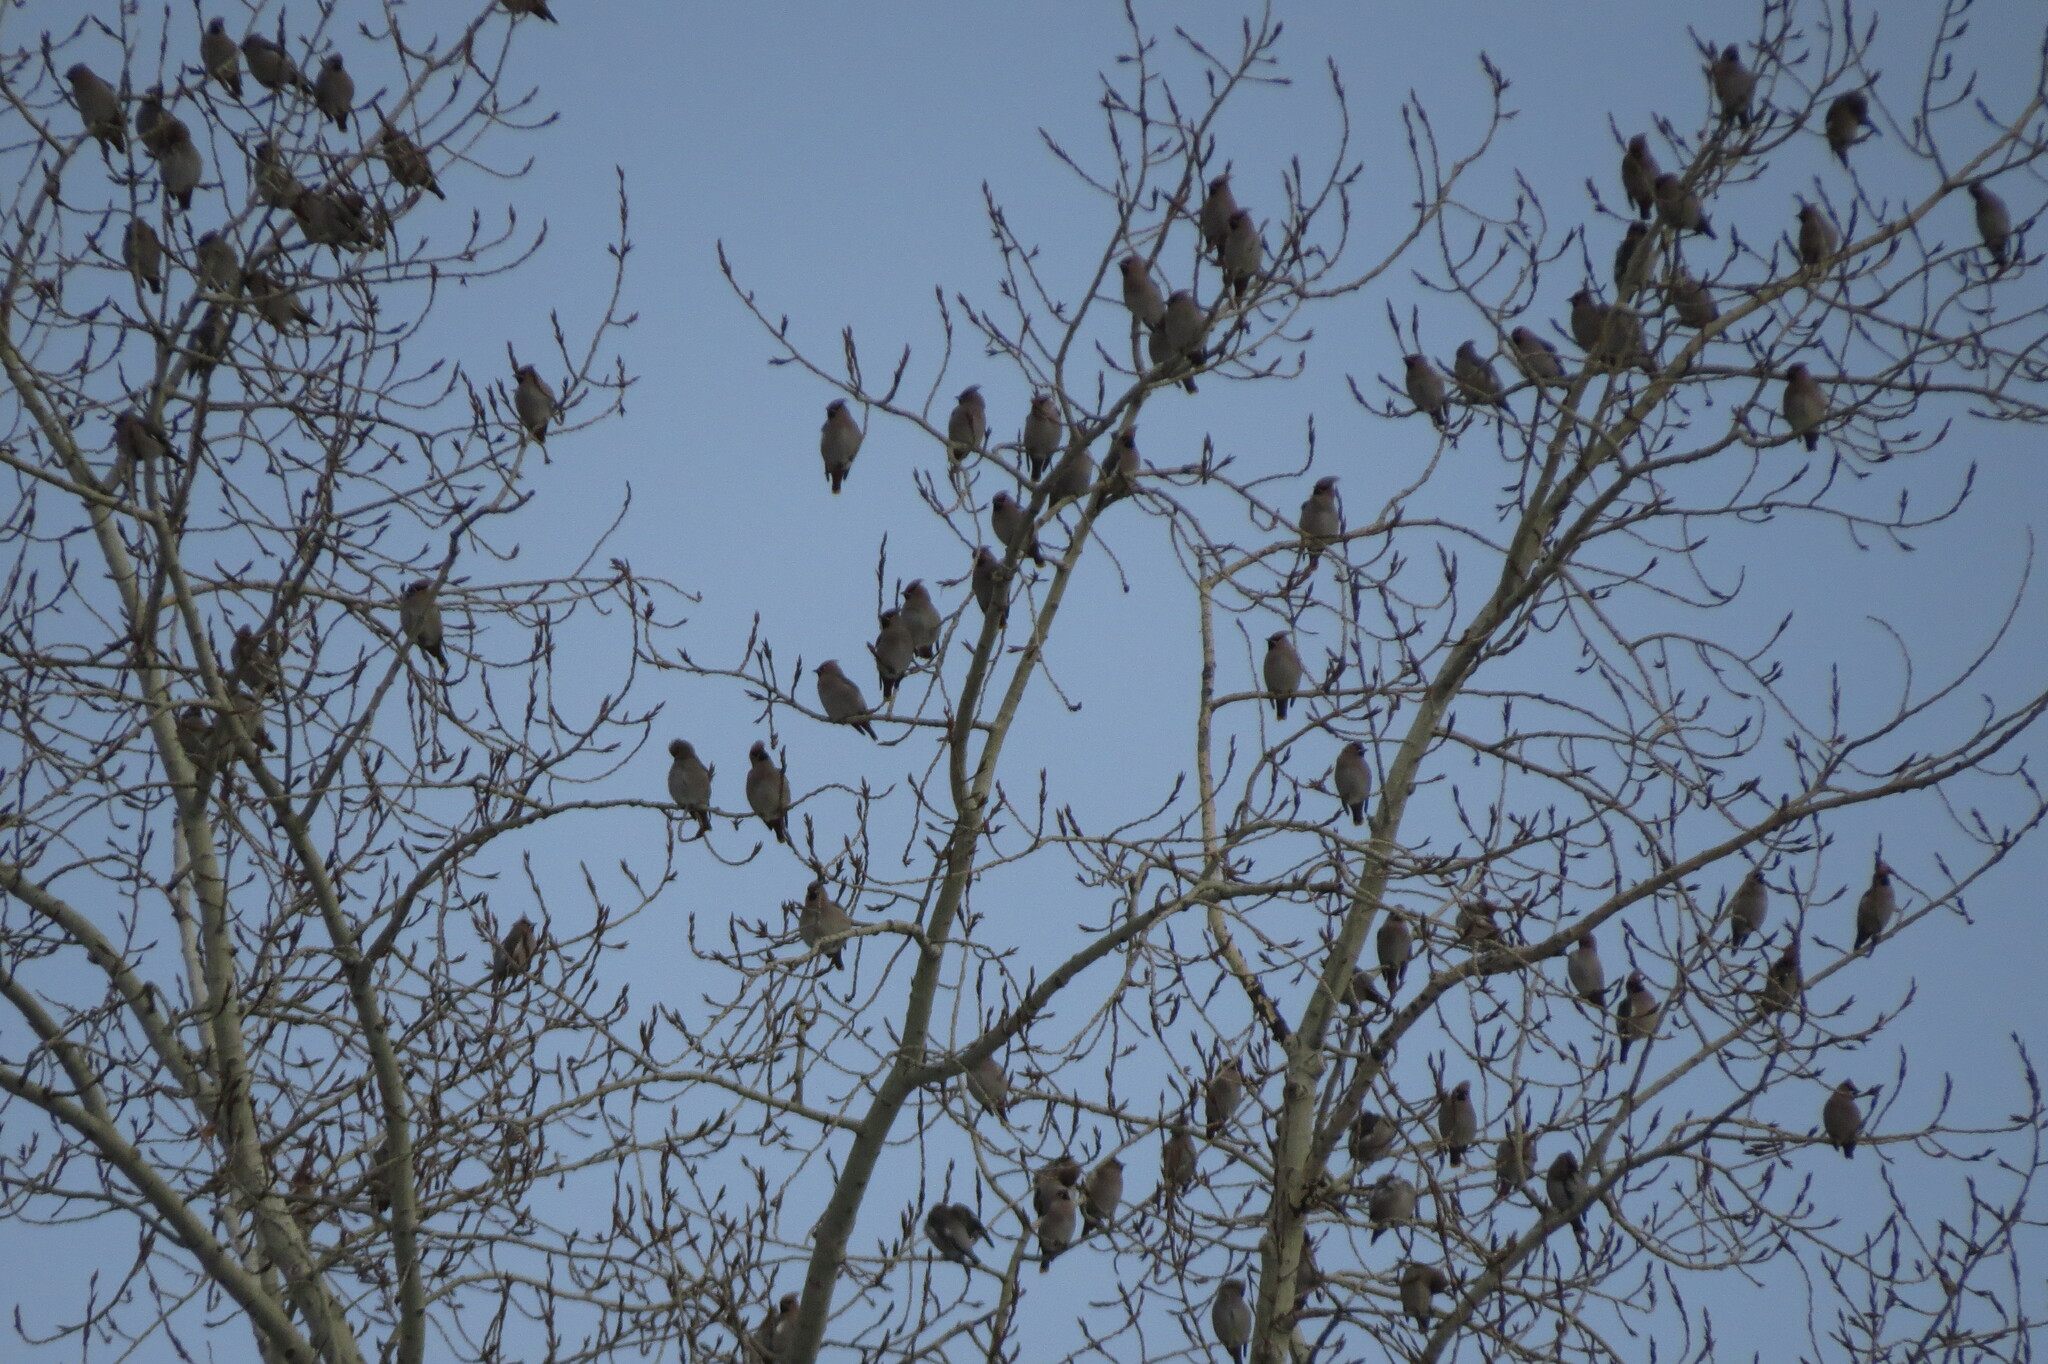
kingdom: Animalia
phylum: Chordata
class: Aves
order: Passeriformes
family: Bombycillidae
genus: Bombycilla
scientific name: Bombycilla garrulus
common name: Bohemian waxwing
